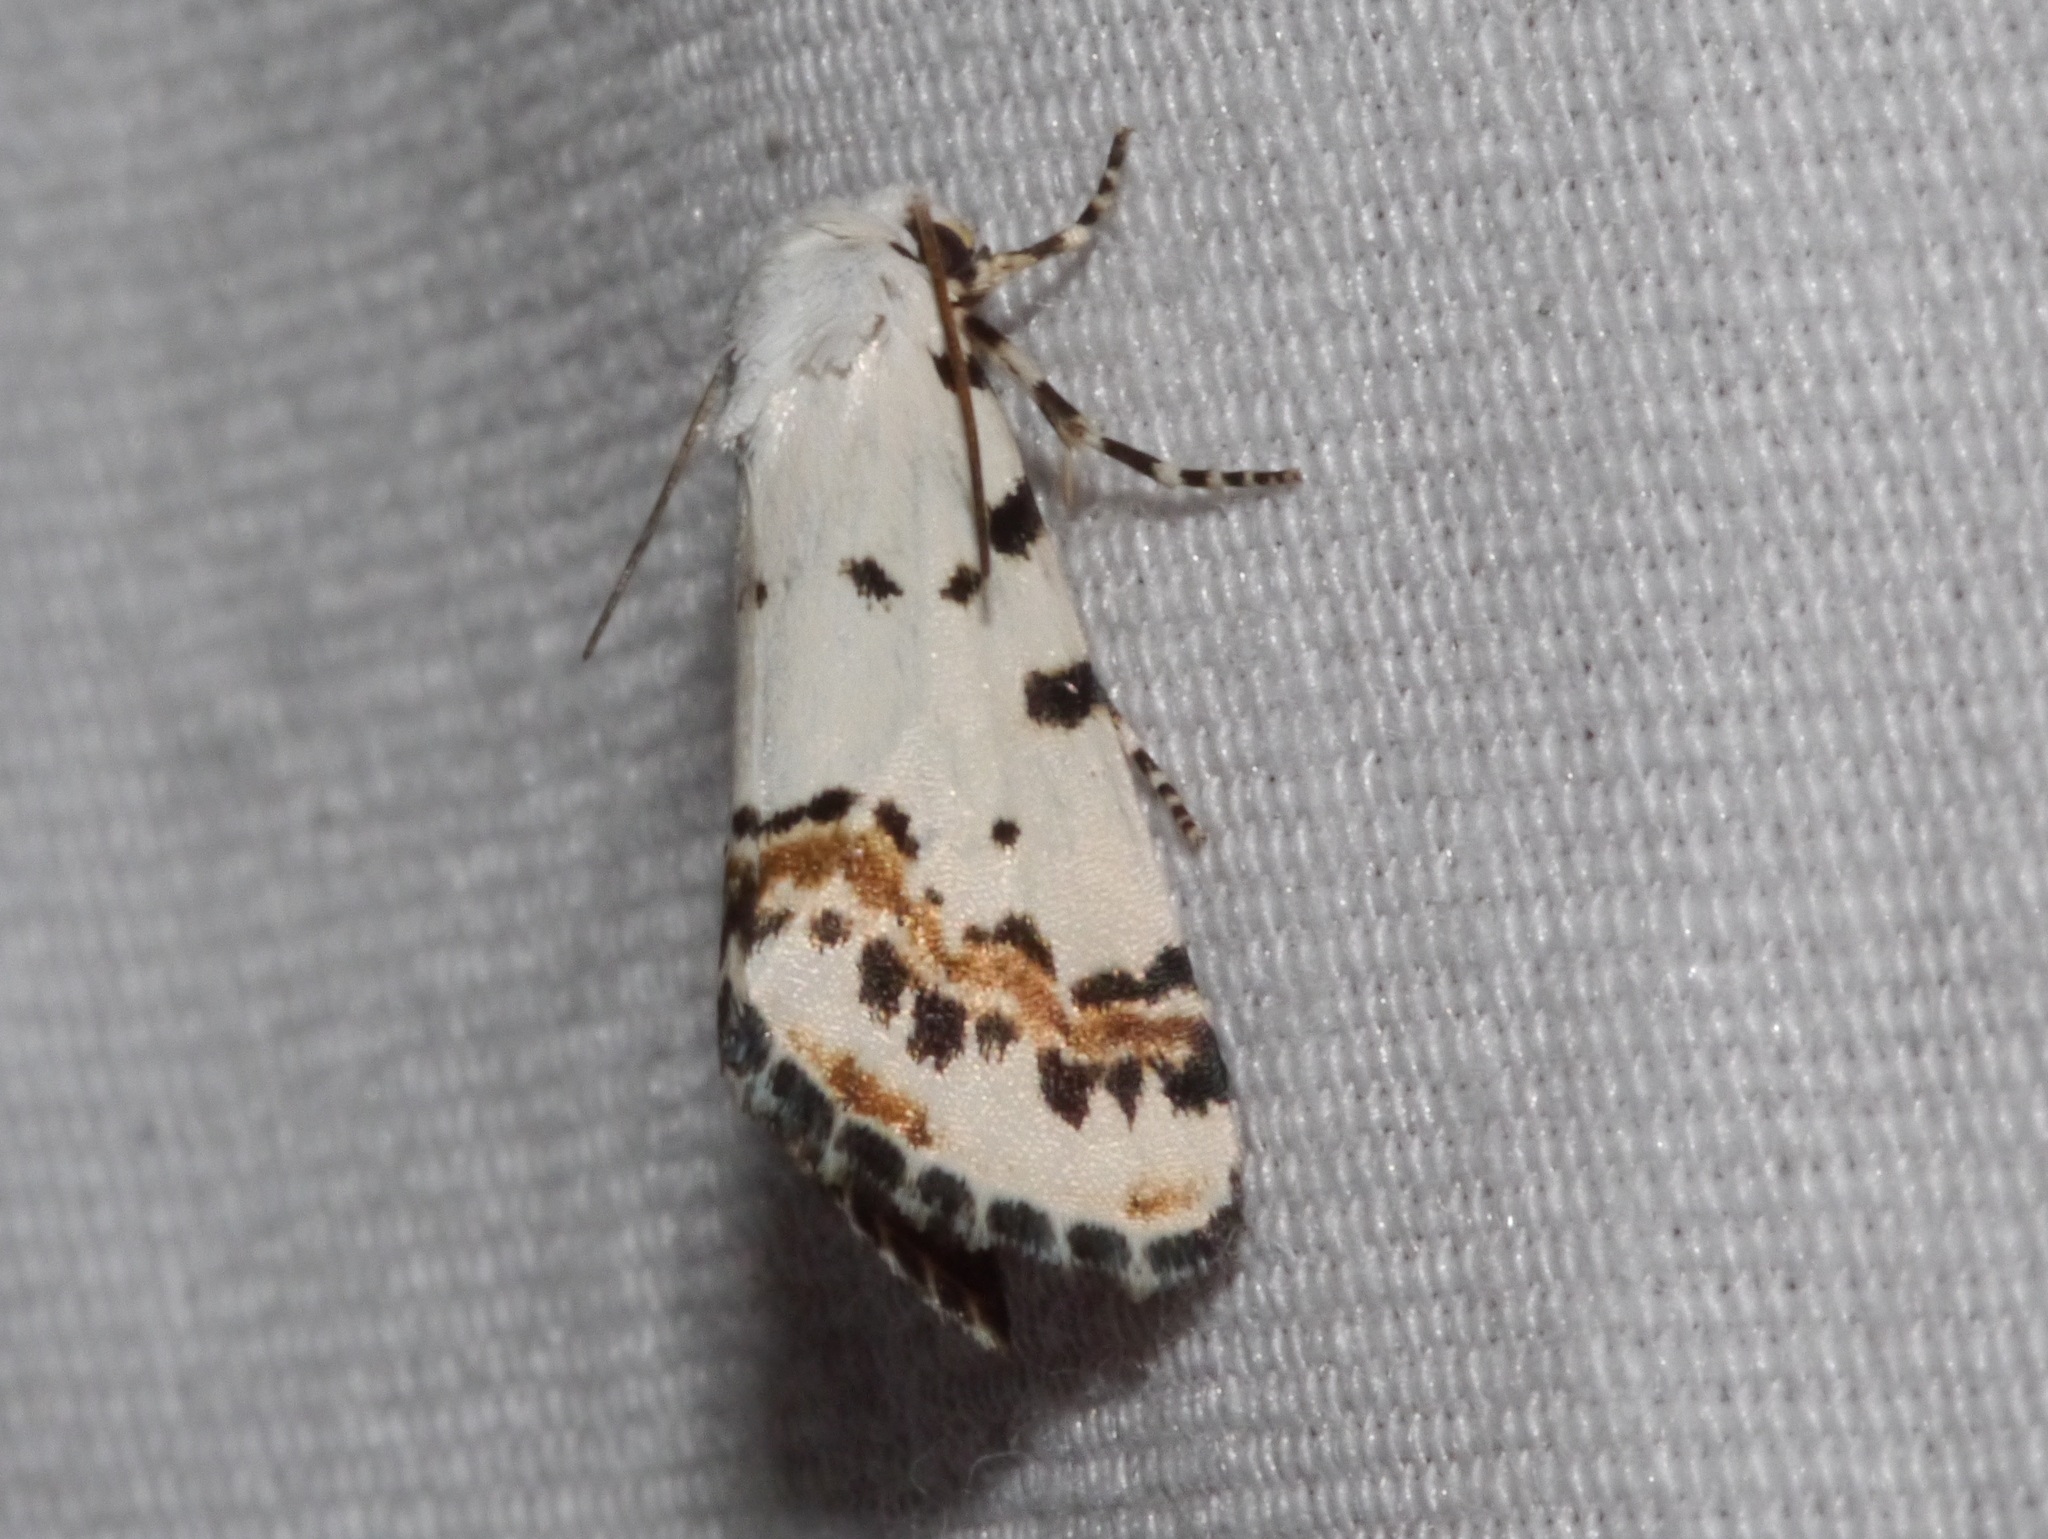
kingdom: Animalia
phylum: Arthropoda
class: Insecta
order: Lepidoptera
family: Noctuidae
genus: Grotella
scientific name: Grotella tricolor
